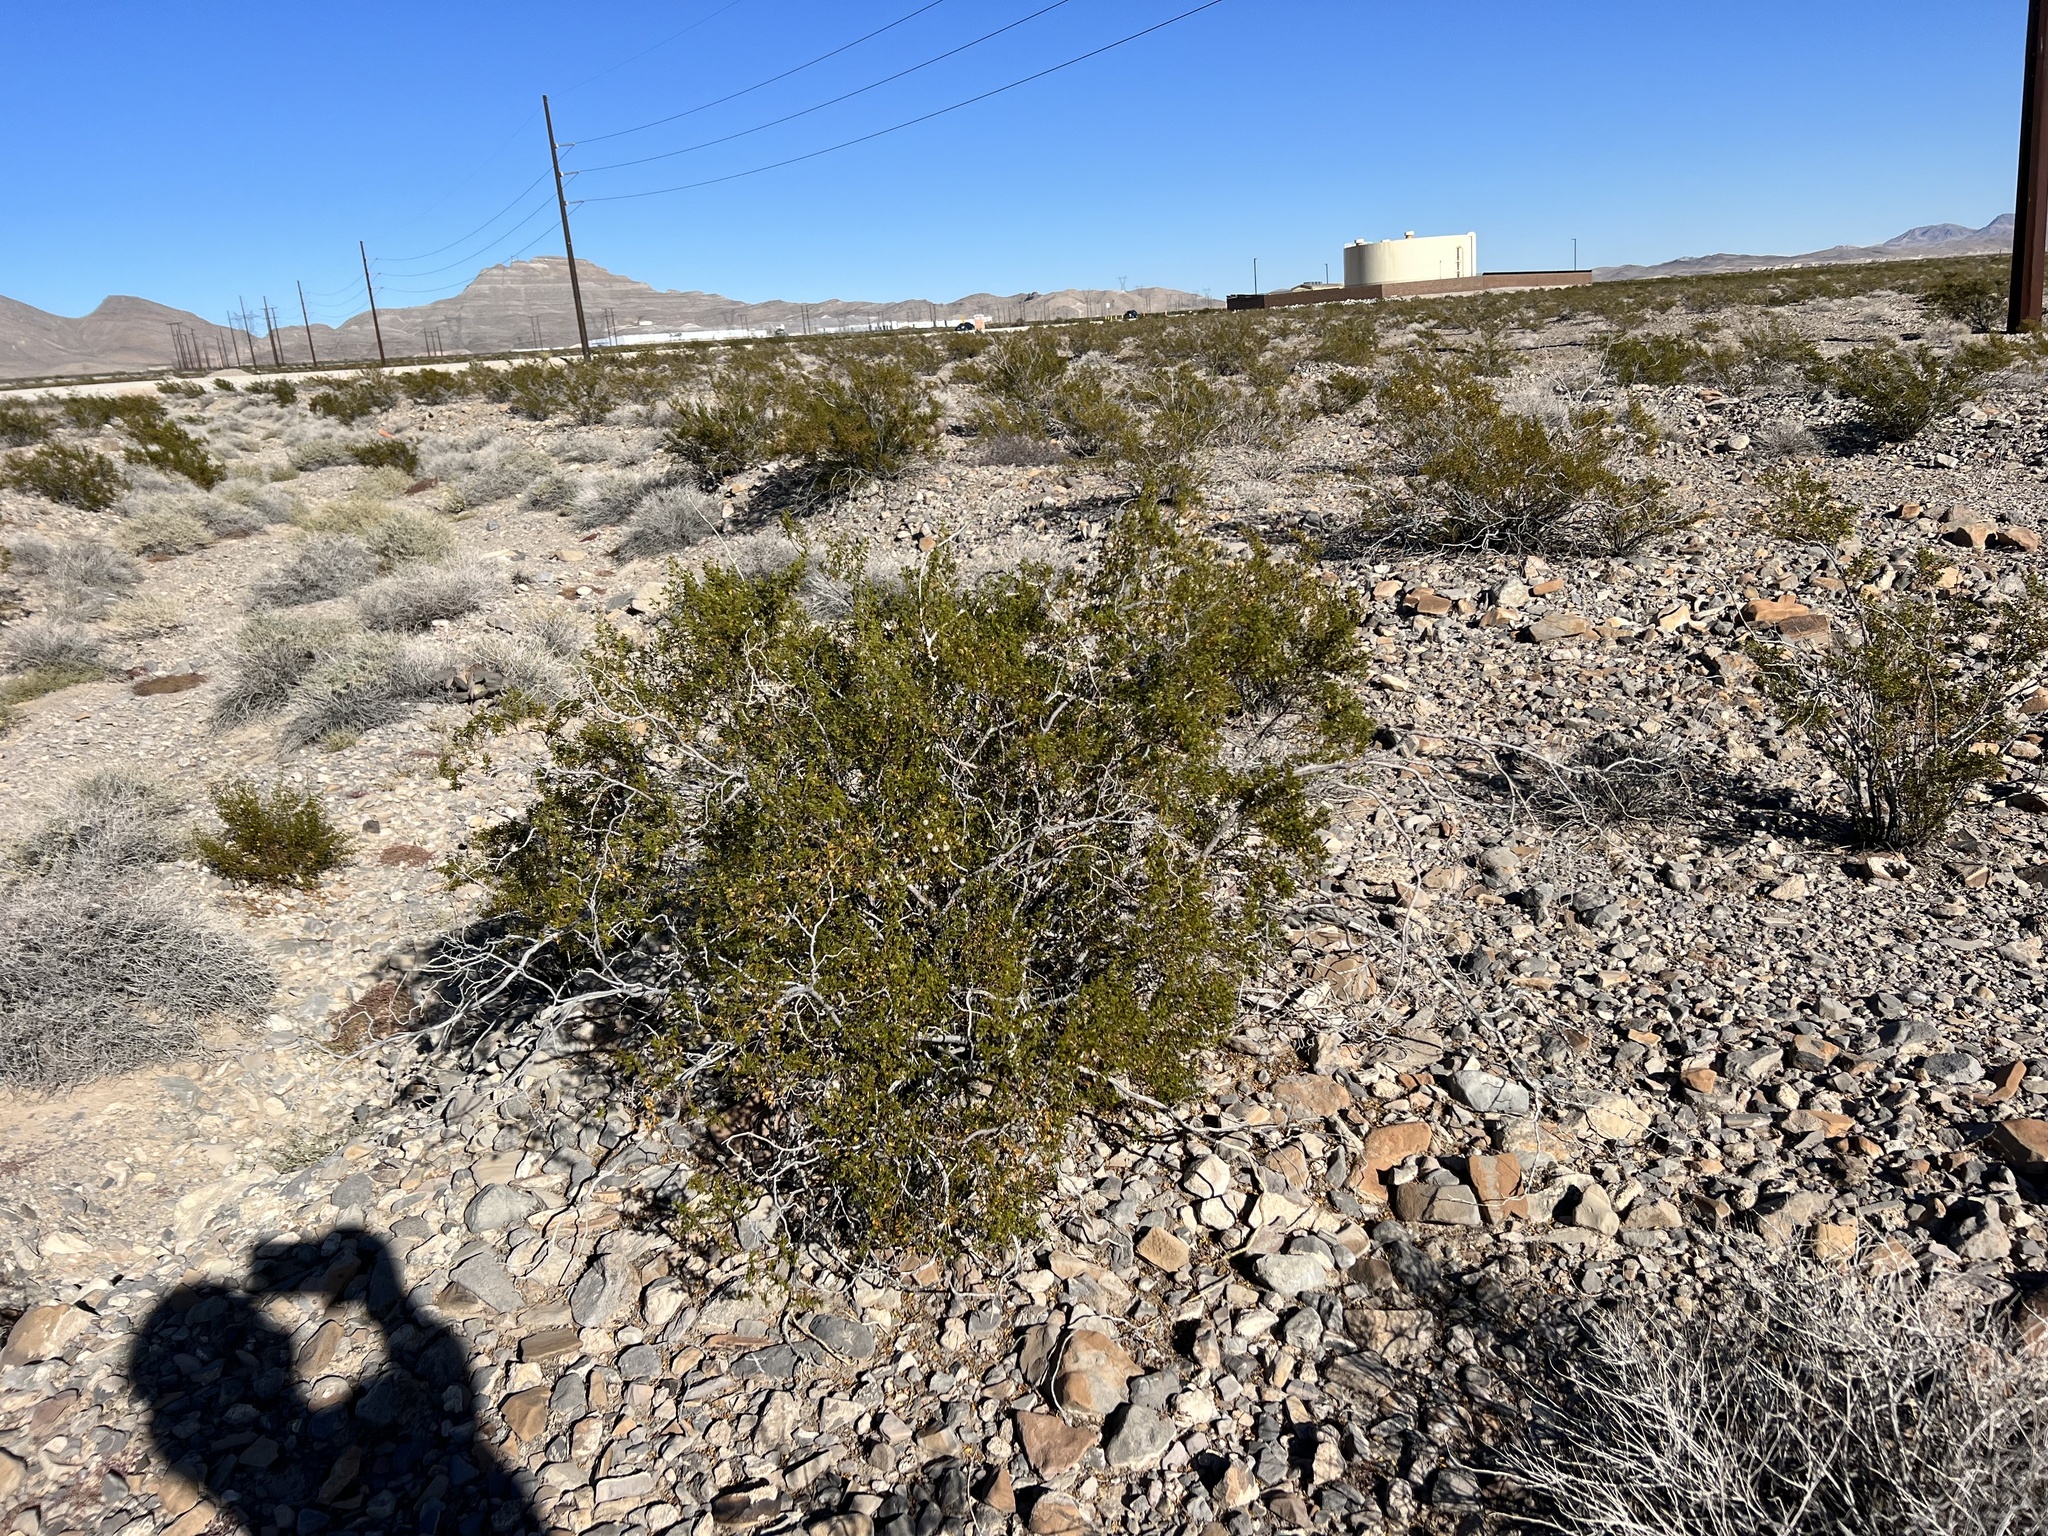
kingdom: Plantae
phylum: Tracheophyta
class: Magnoliopsida
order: Zygophyllales
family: Zygophyllaceae
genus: Larrea
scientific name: Larrea tridentata
